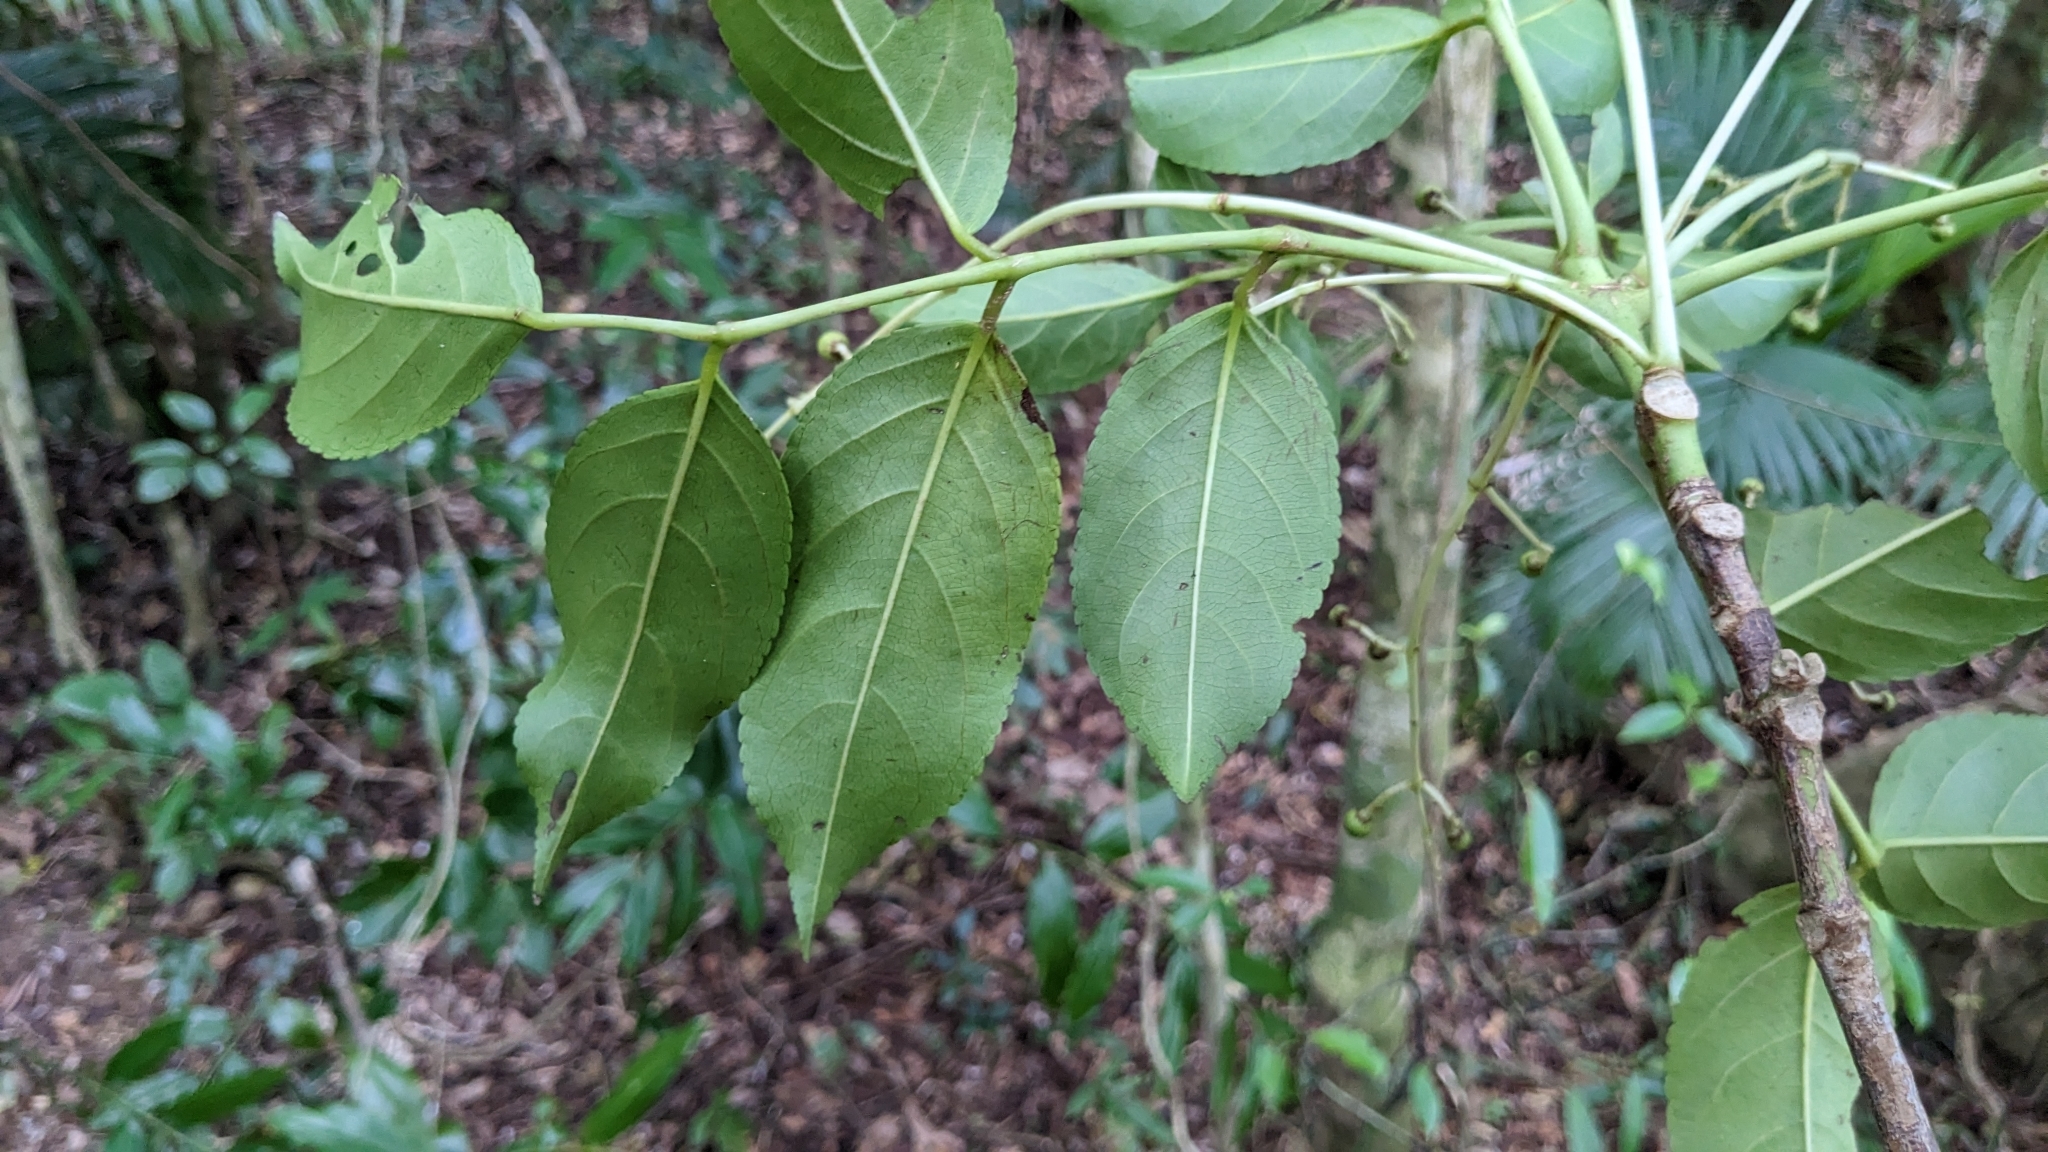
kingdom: Plantae
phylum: Tracheophyta
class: Magnoliopsida
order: Crossosomatales
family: Staphyleaceae
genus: Dalrympelea
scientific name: Dalrympelea trifoliata
